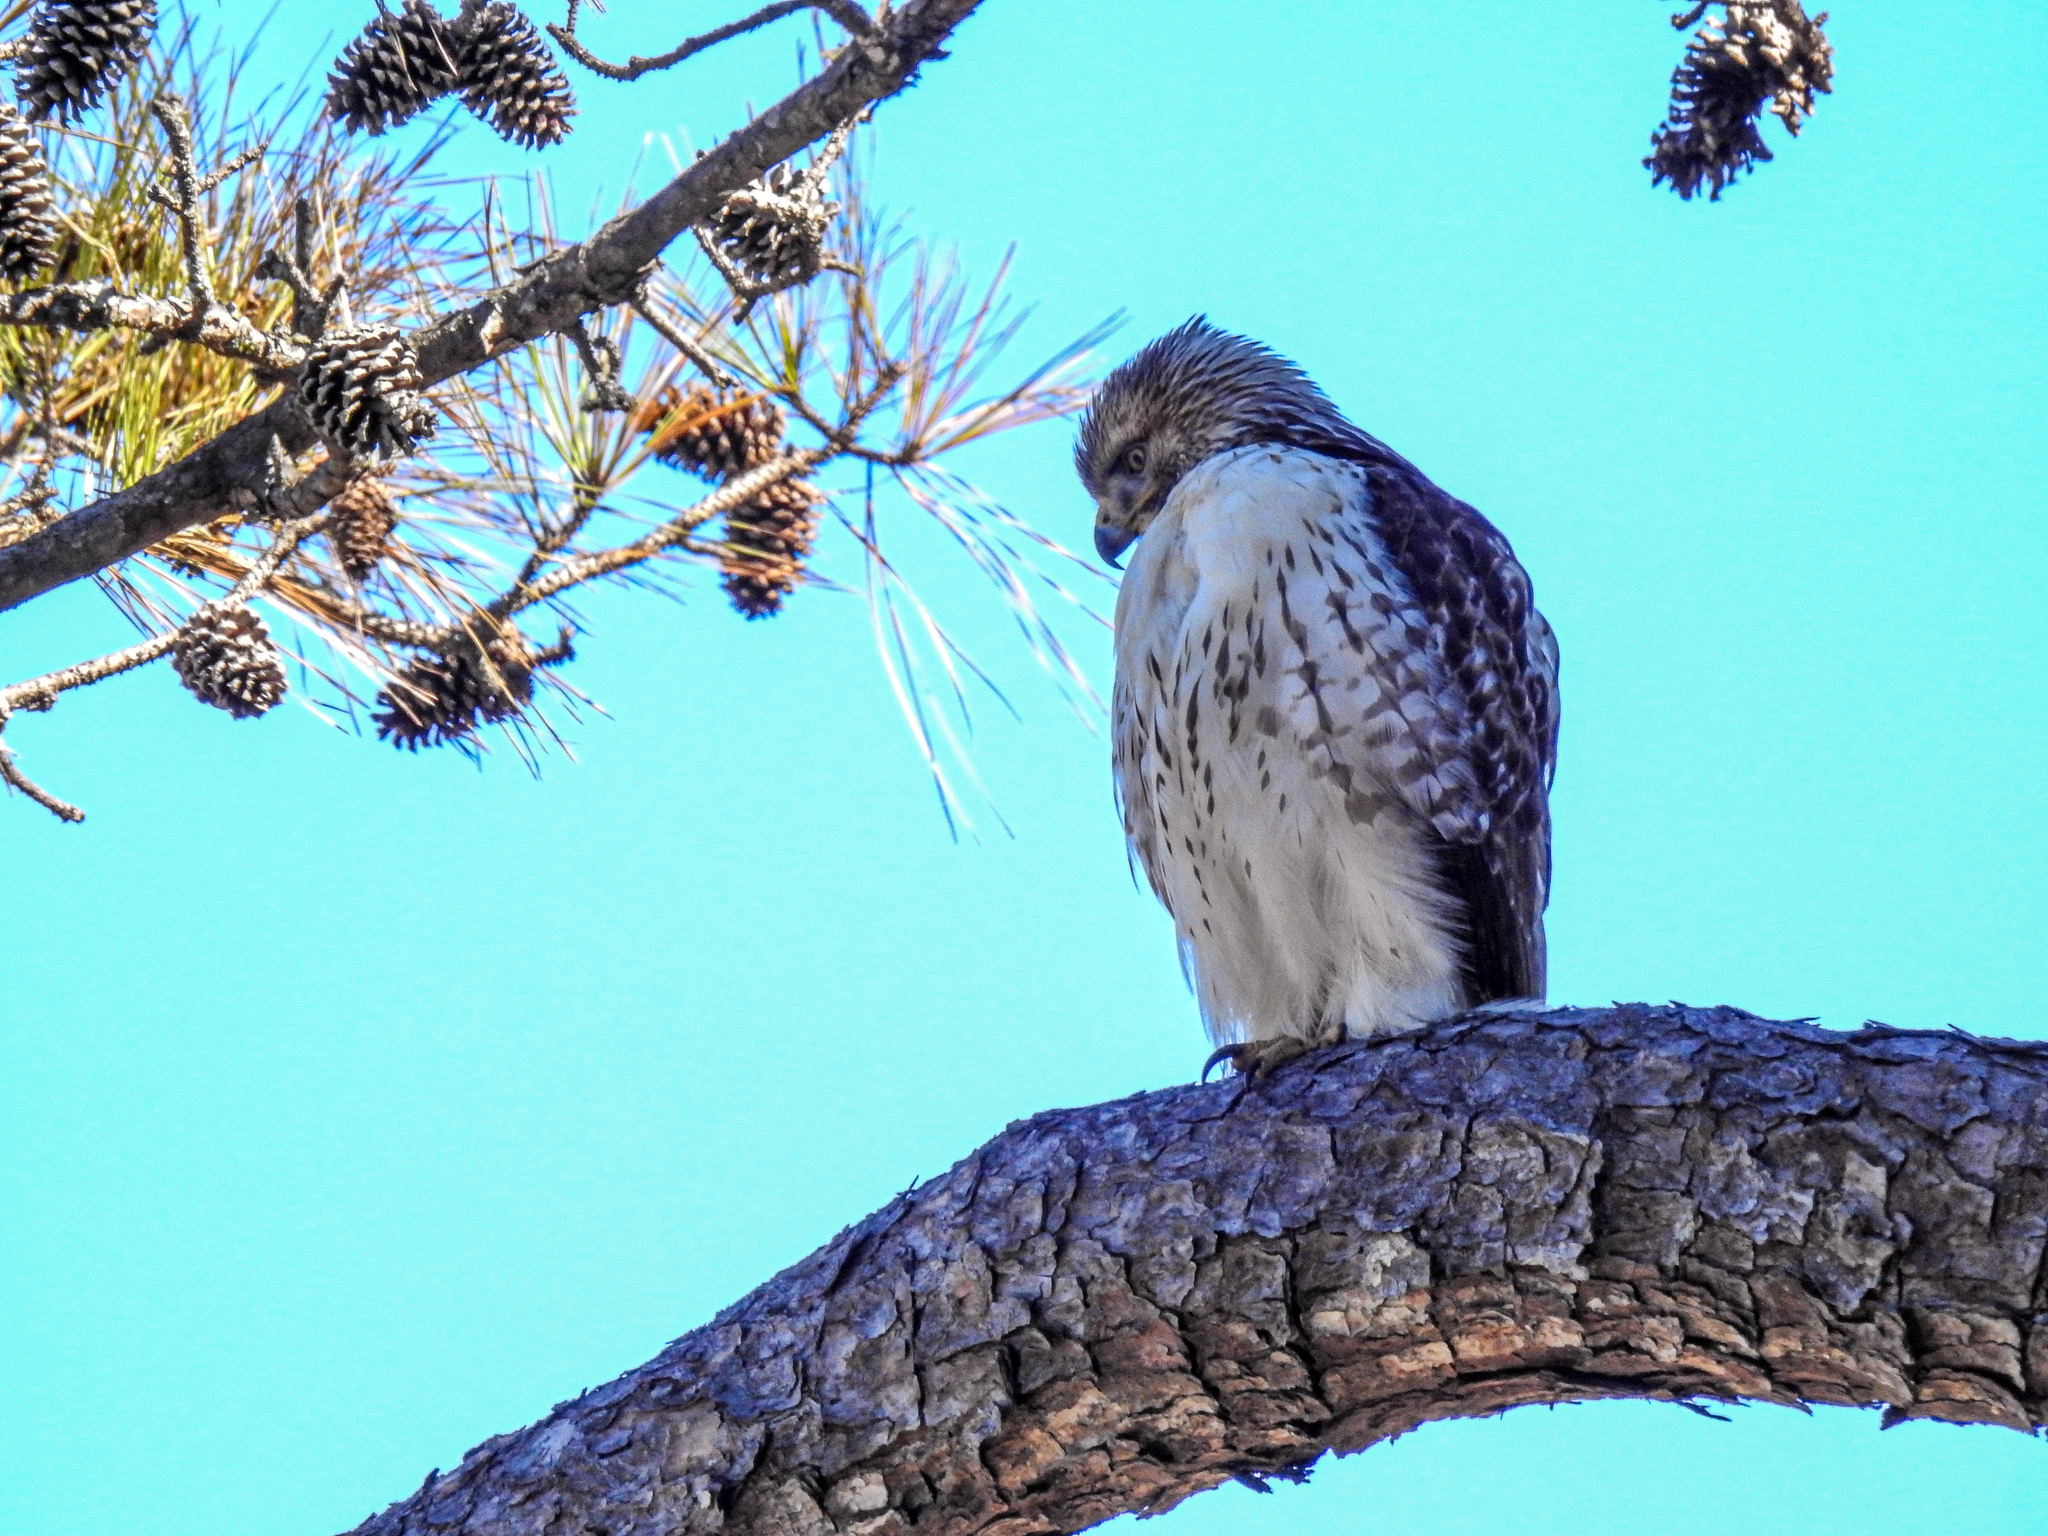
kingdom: Animalia
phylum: Chordata
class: Aves
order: Accipitriformes
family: Accipitridae
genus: Buteo
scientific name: Buteo jamaicensis
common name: Red-tailed hawk
